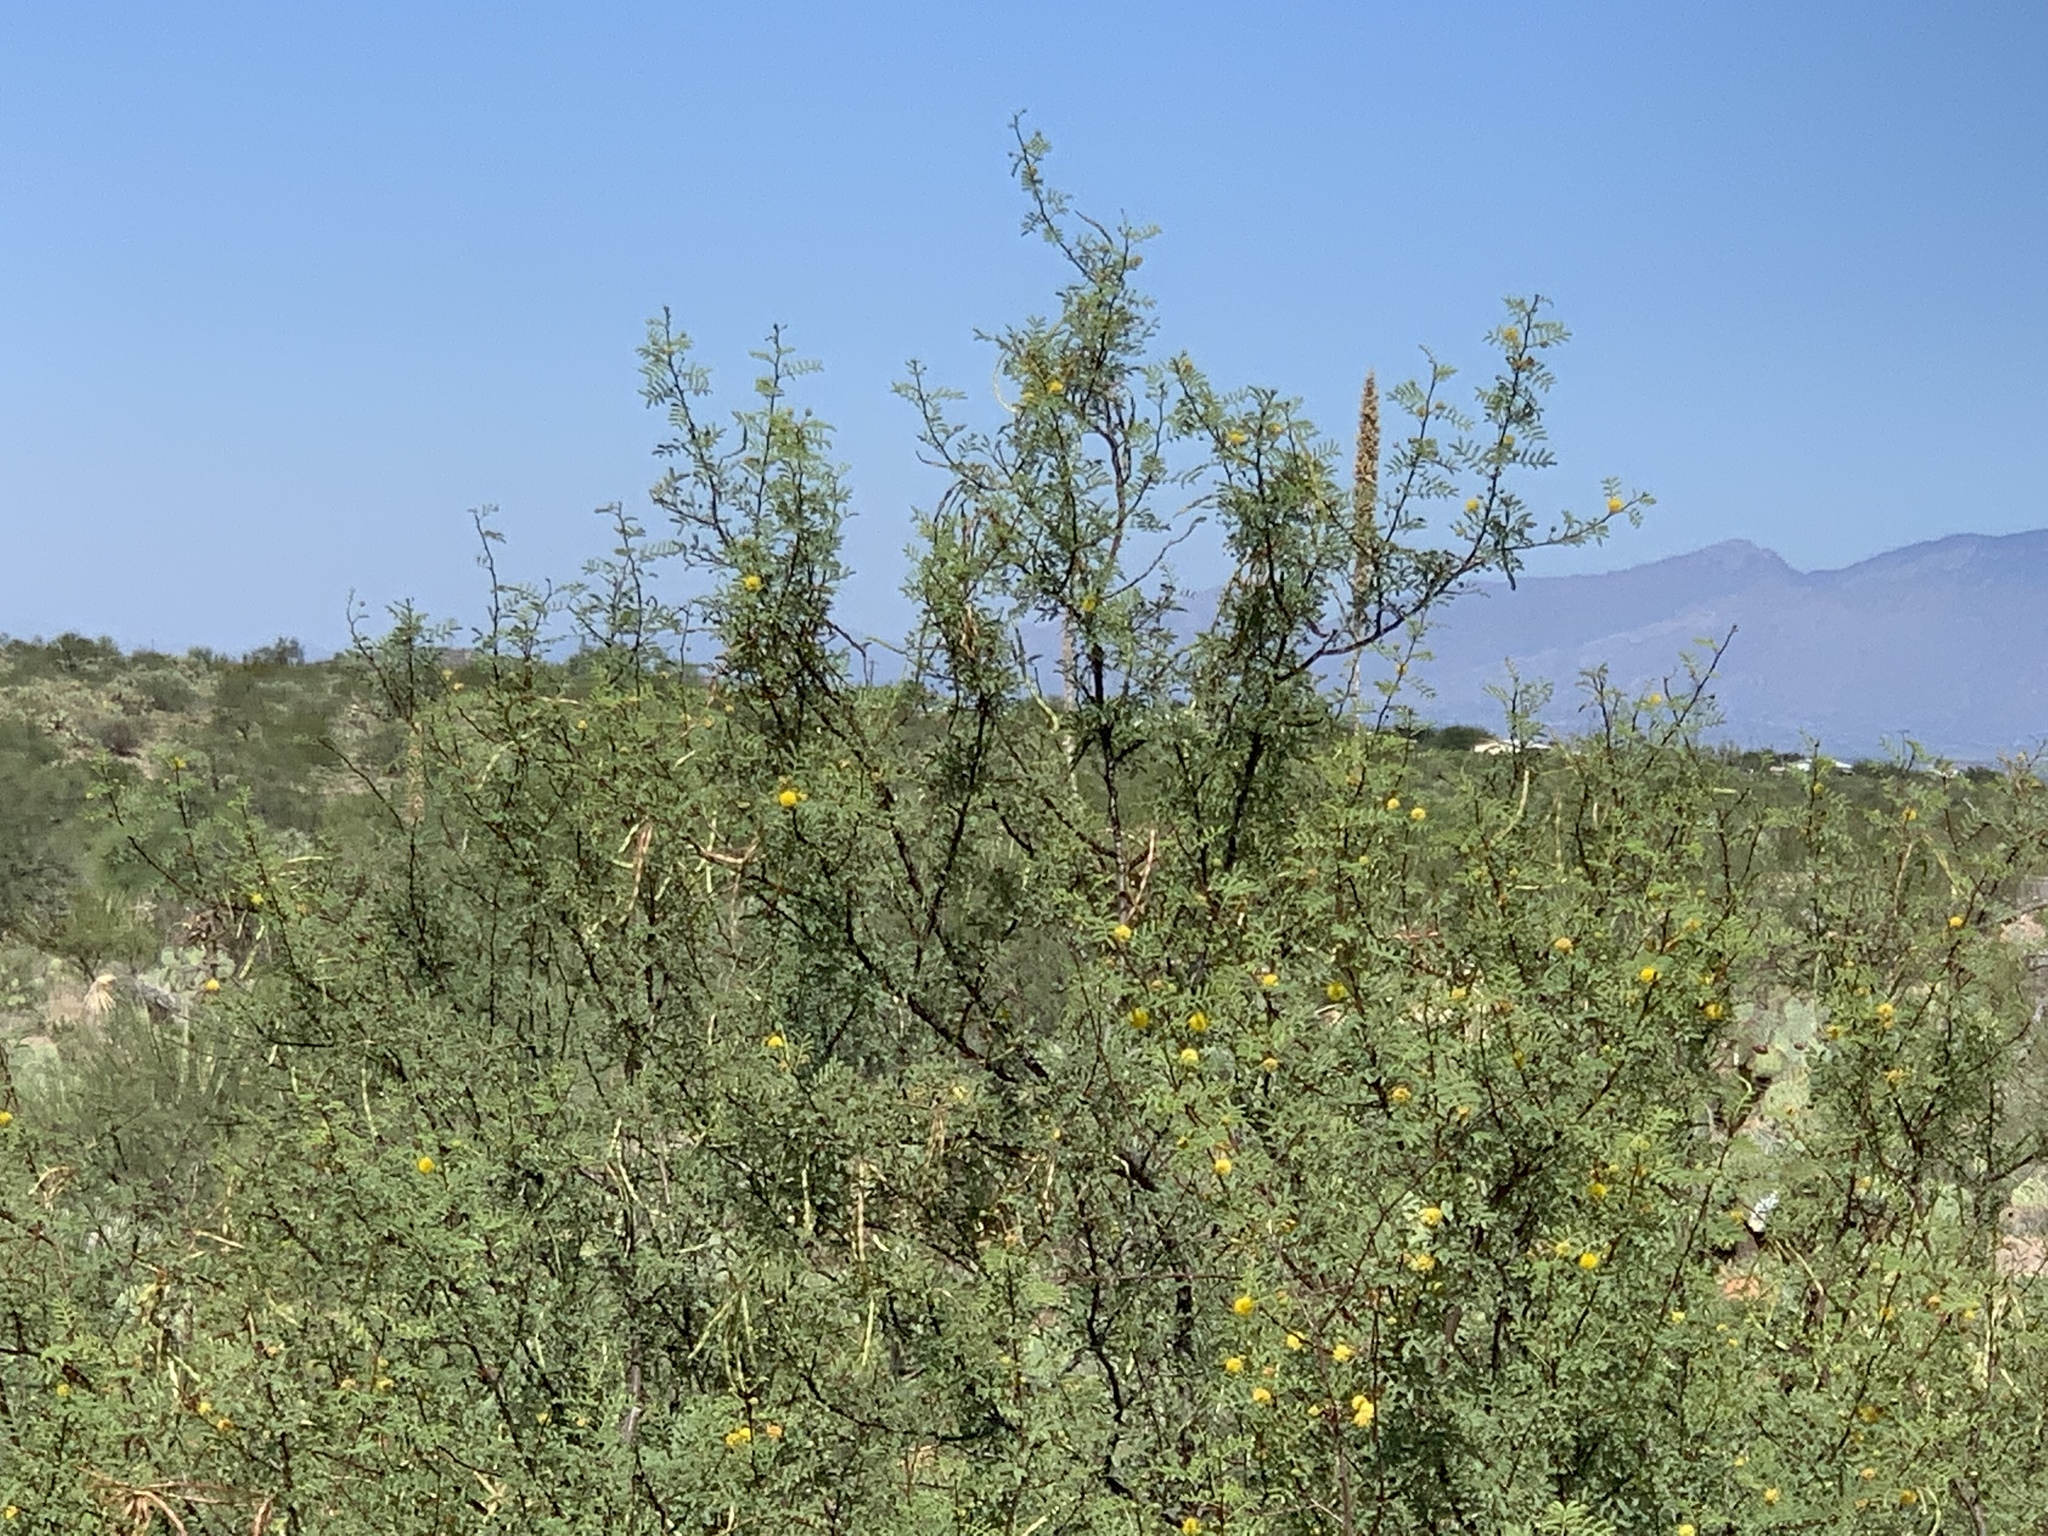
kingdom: Plantae
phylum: Tracheophyta
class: Magnoliopsida
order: Fabales
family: Fabaceae
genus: Vachellia
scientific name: Vachellia constricta
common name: Mescat acacia
